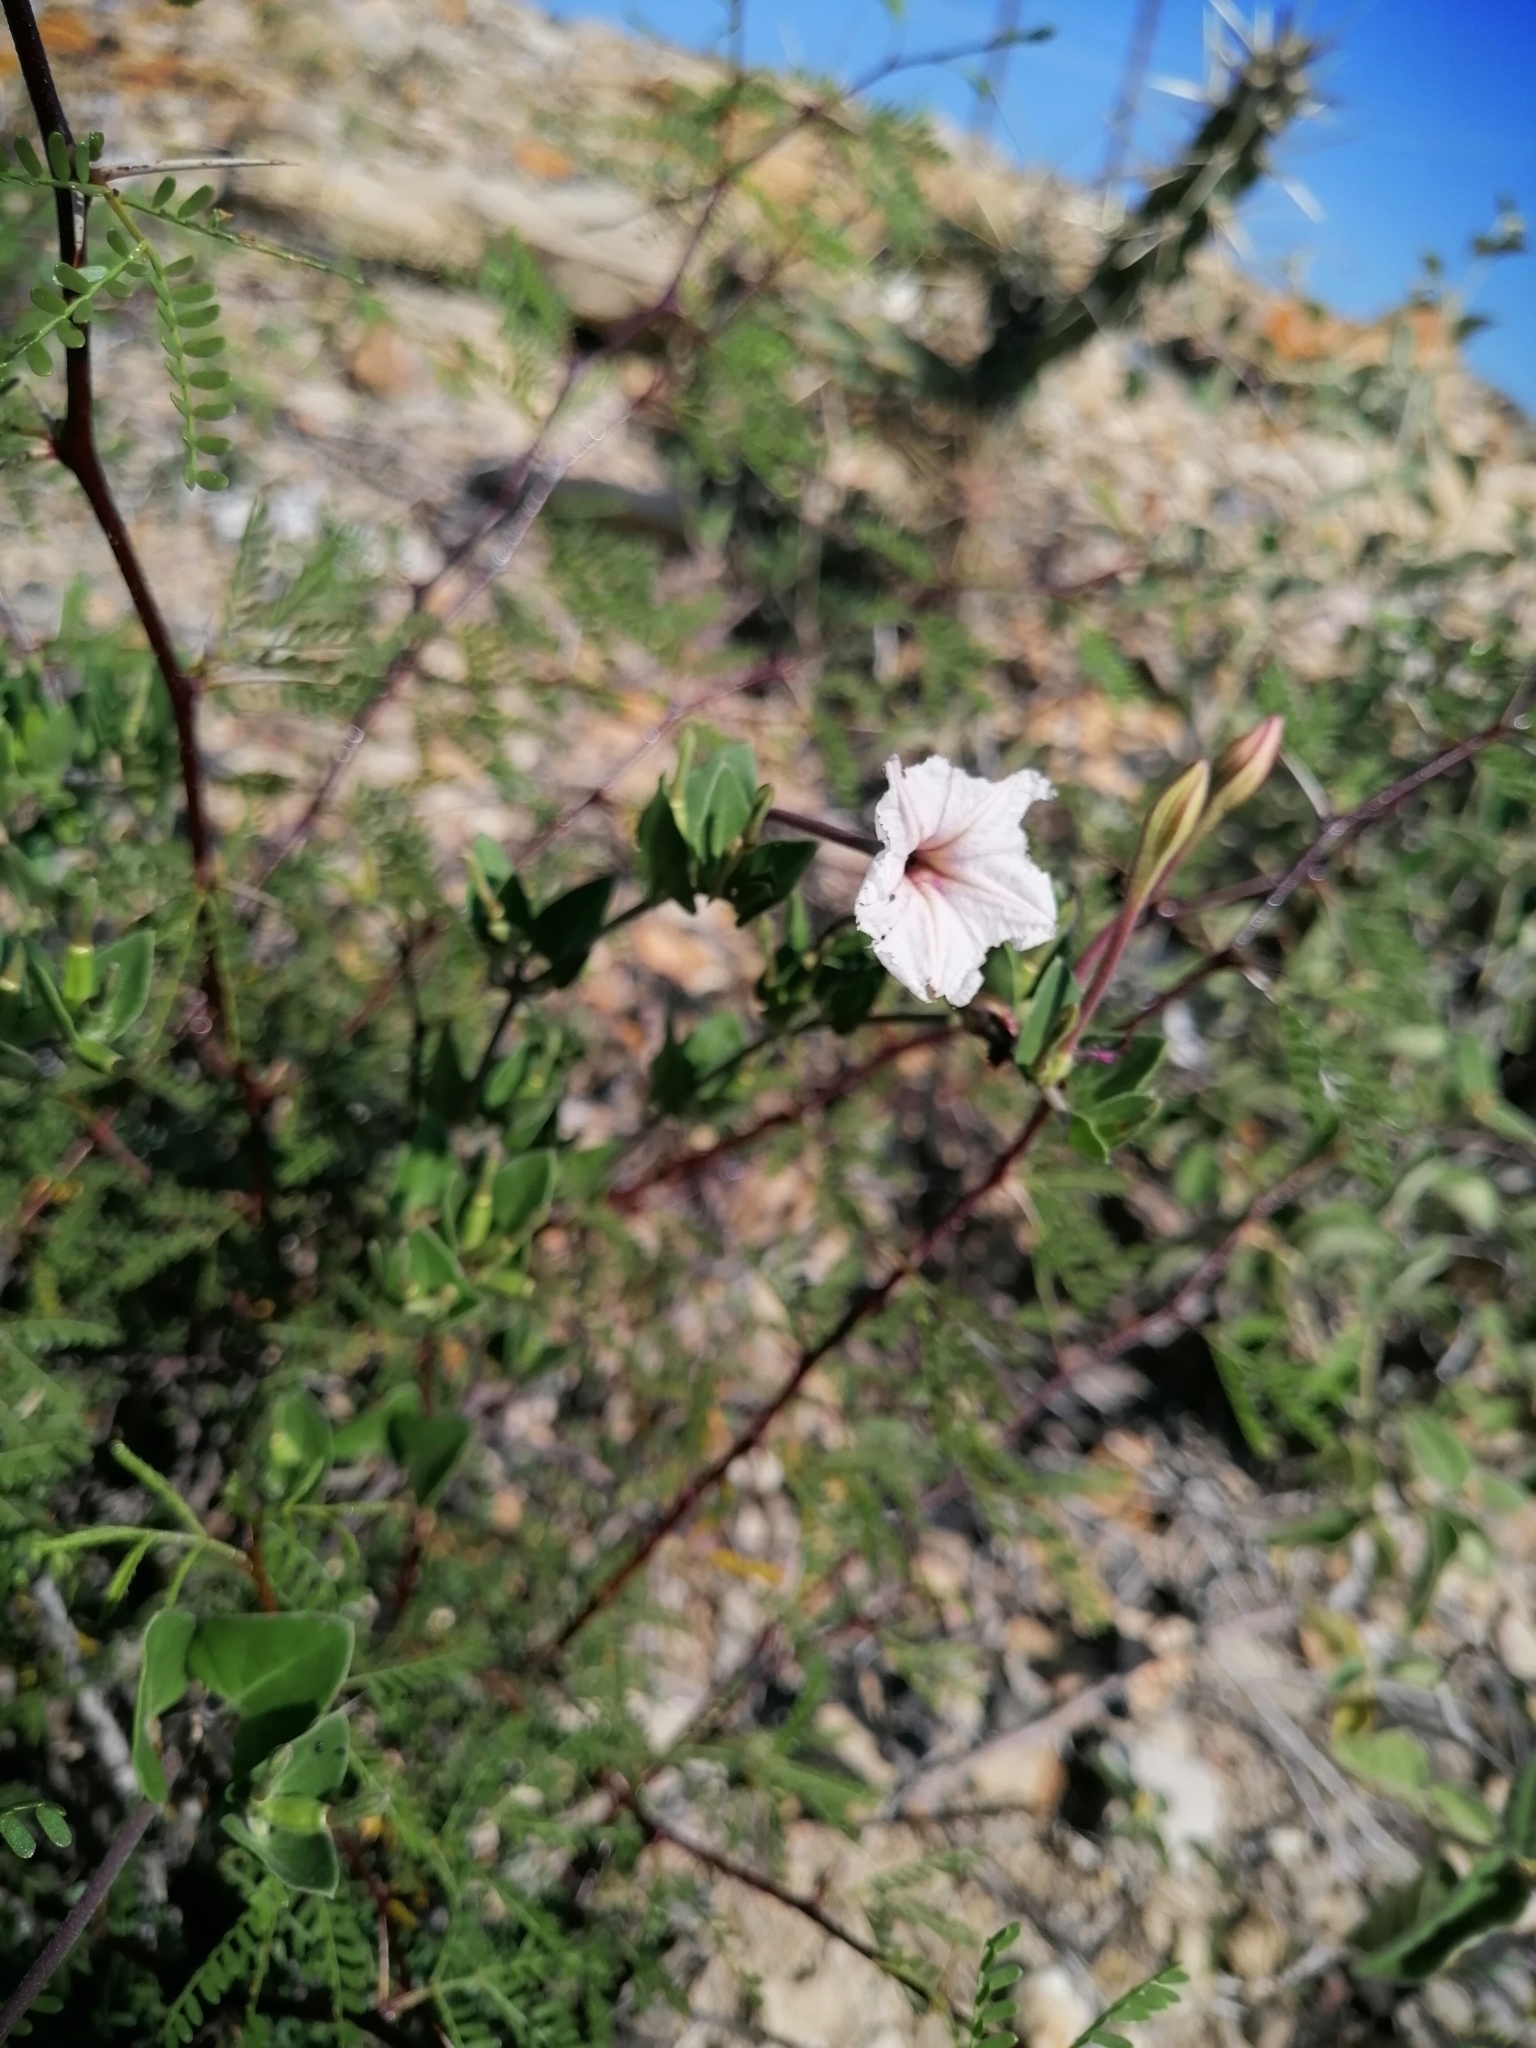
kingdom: Plantae
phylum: Tracheophyta
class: Magnoliopsida
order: Caryophyllales
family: Nyctaginaceae
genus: Acleisanthes
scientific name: Acleisanthes obtusa
